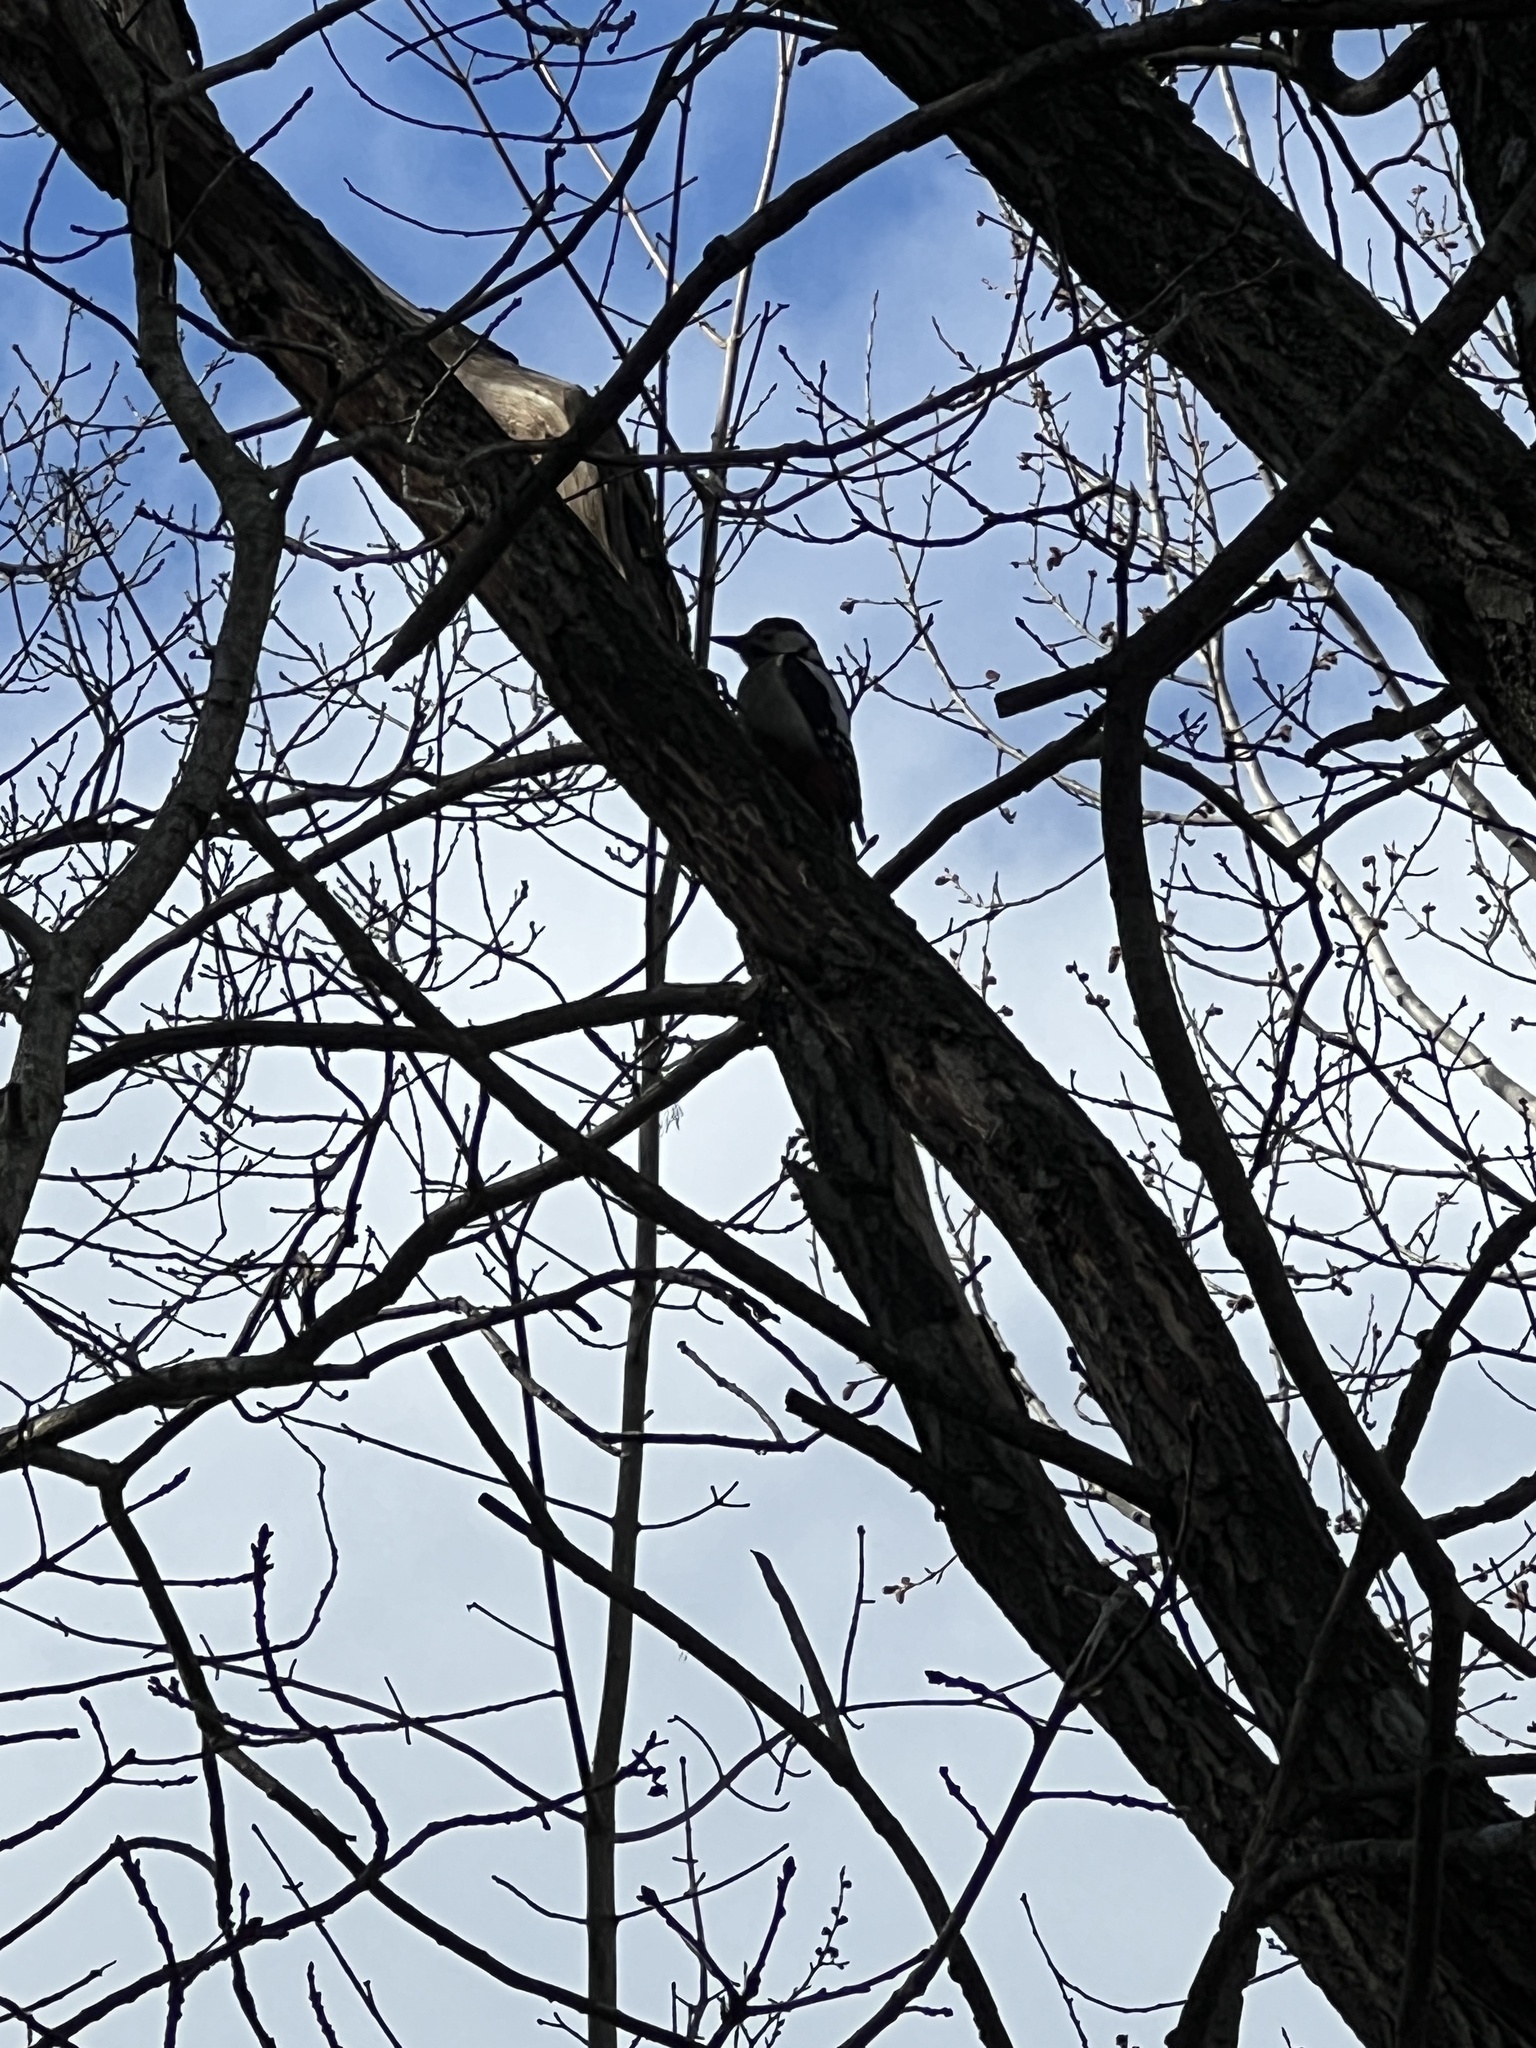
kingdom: Animalia
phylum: Chordata
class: Aves
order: Piciformes
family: Picidae
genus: Dendrocopos
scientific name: Dendrocopos major
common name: Great spotted woodpecker
